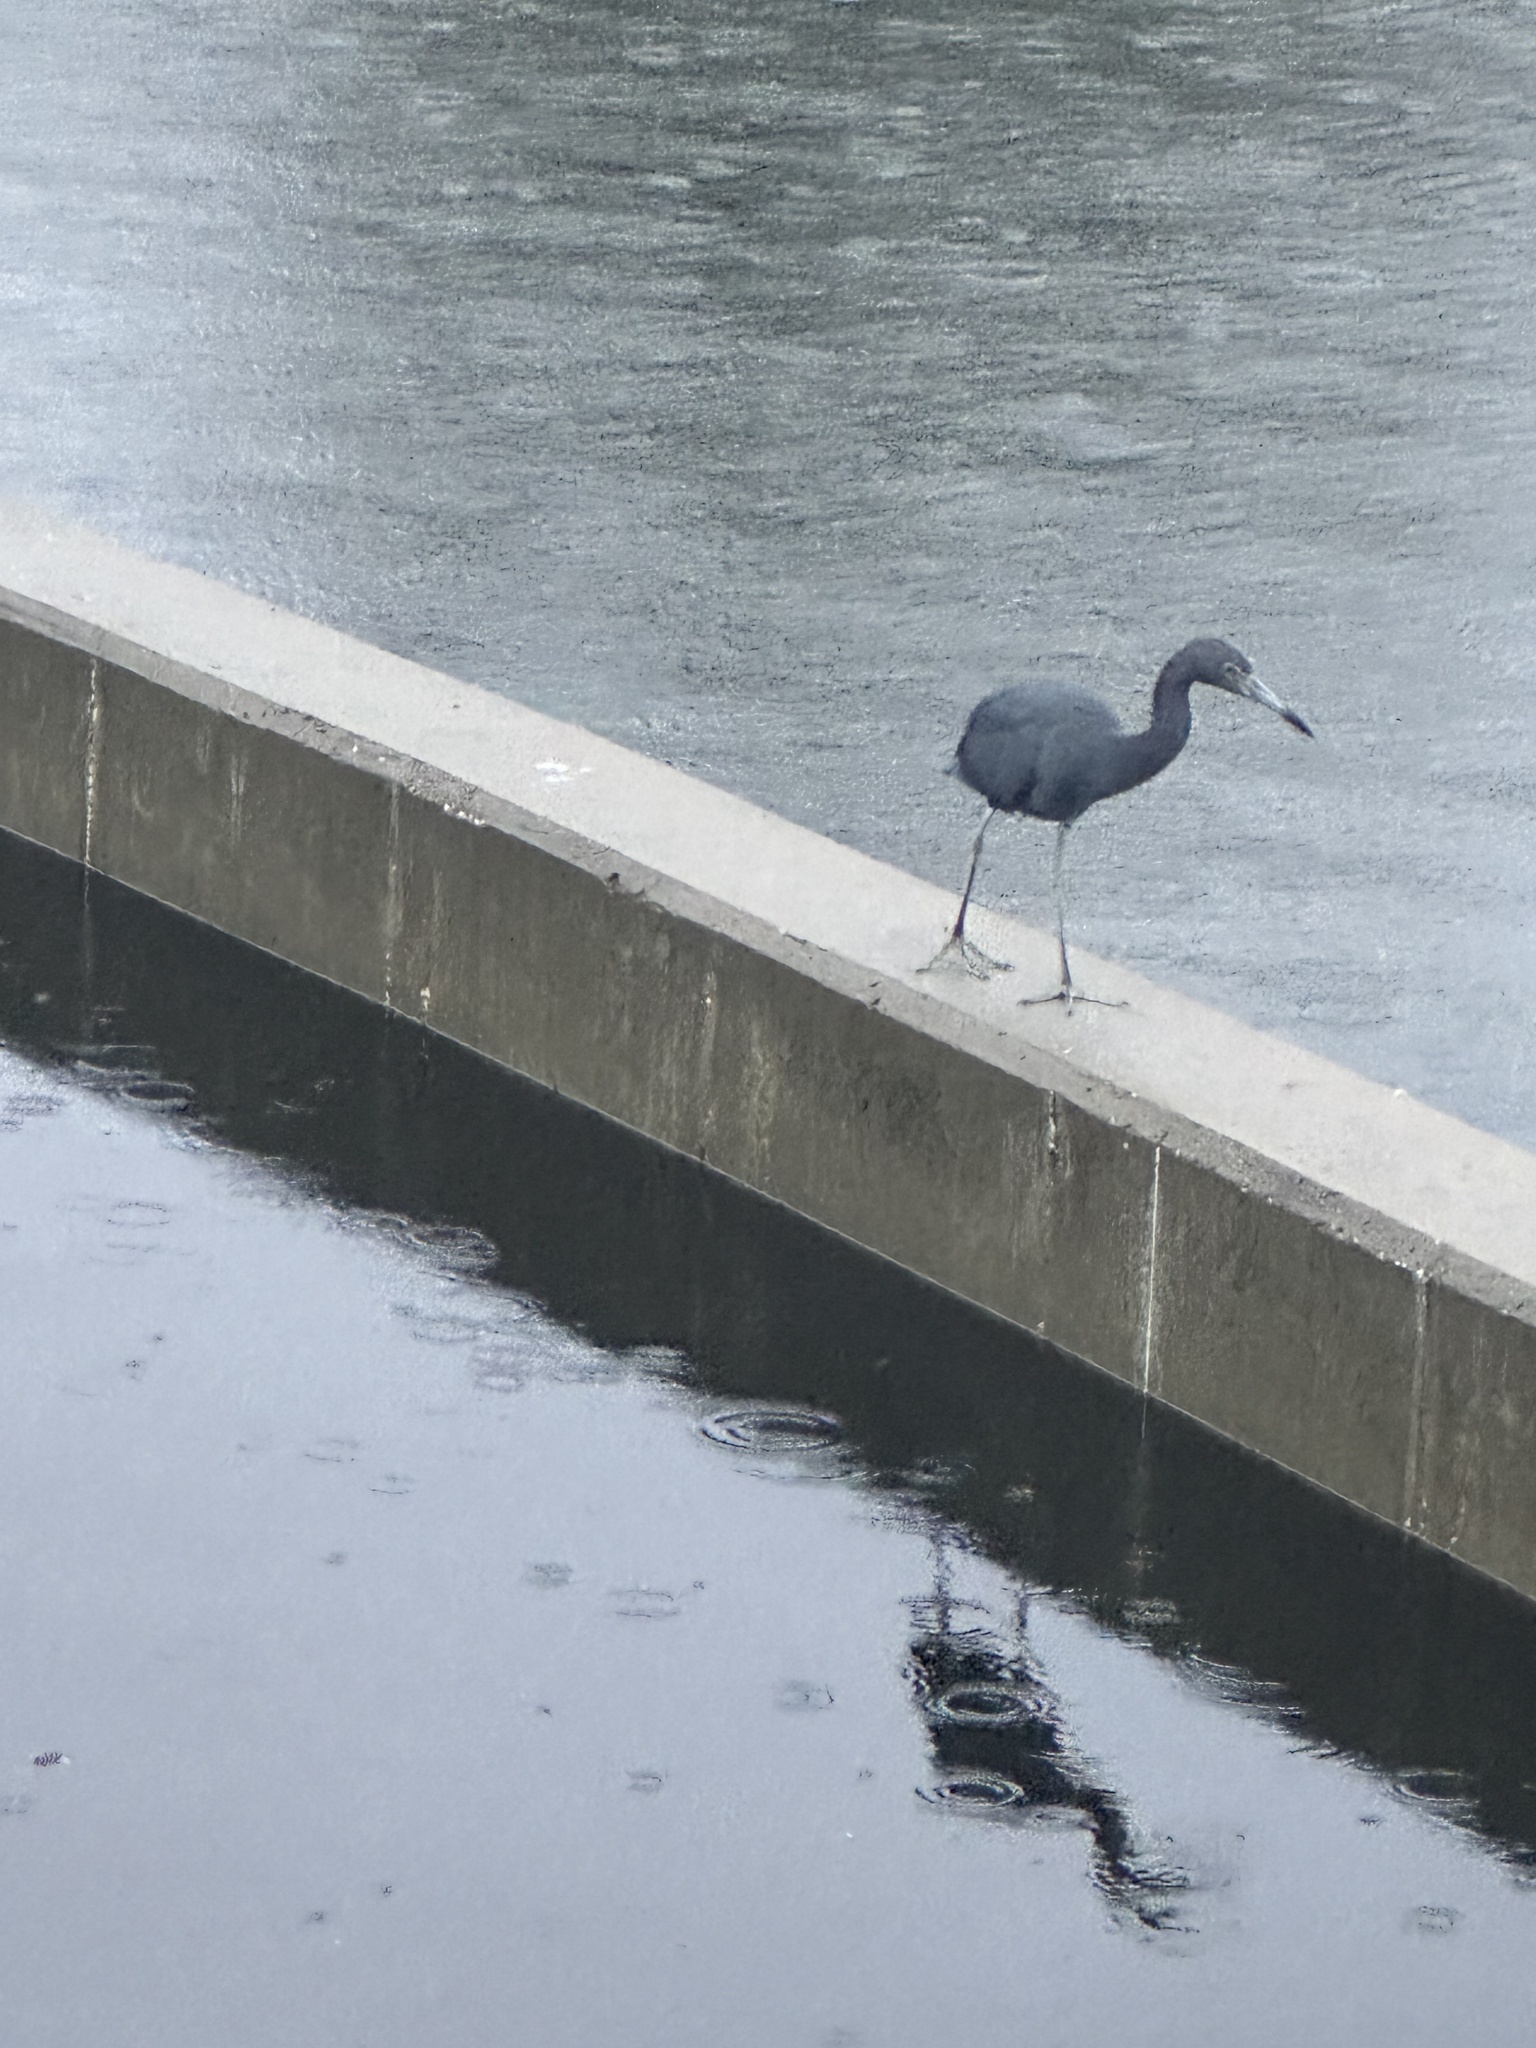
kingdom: Animalia
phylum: Chordata
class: Aves
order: Pelecaniformes
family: Ardeidae
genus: Egretta
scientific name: Egretta caerulea
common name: Little blue heron
